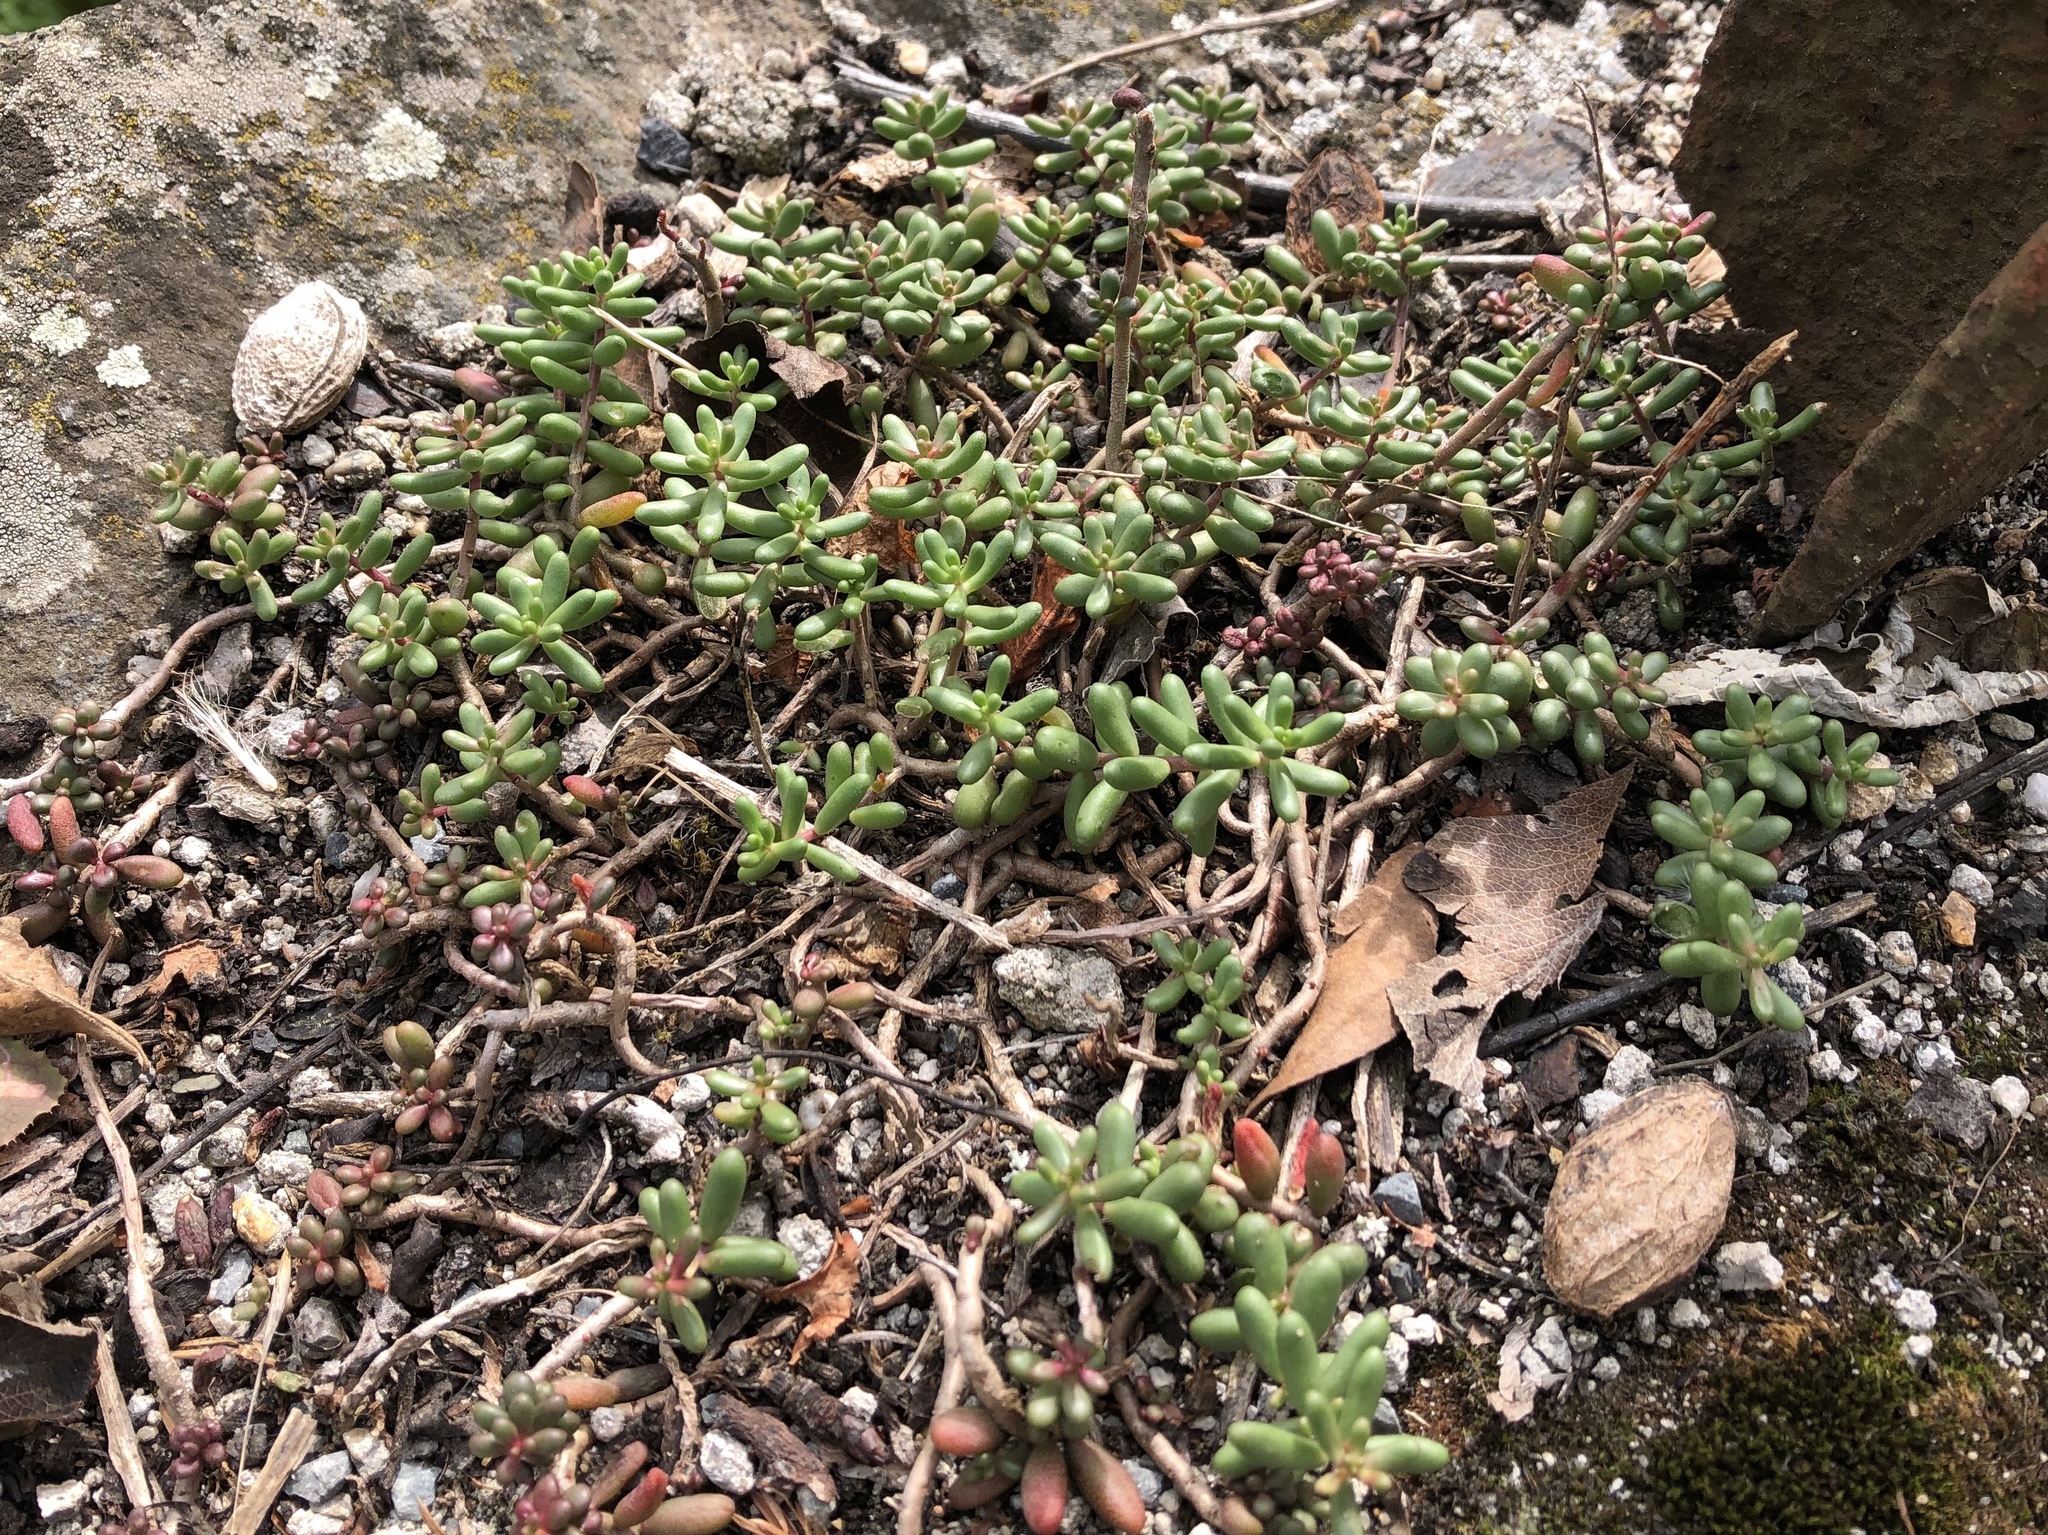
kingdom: Plantae
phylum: Tracheophyta
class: Magnoliopsida
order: Saxifragales
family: Crassulaceae
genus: Sedum
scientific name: Sedum album
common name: White stonecrop
